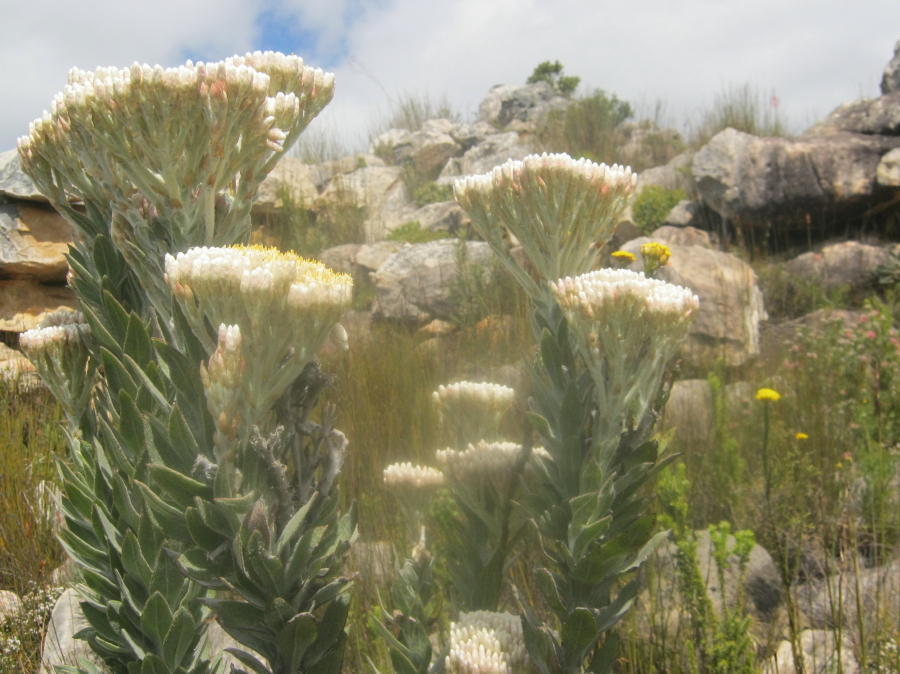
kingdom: Plantae
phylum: Tracheophyta
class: Magnoliopsida
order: Asterales
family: Asteraceae
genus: Syncarpha
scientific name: Syncarpha milleflora
